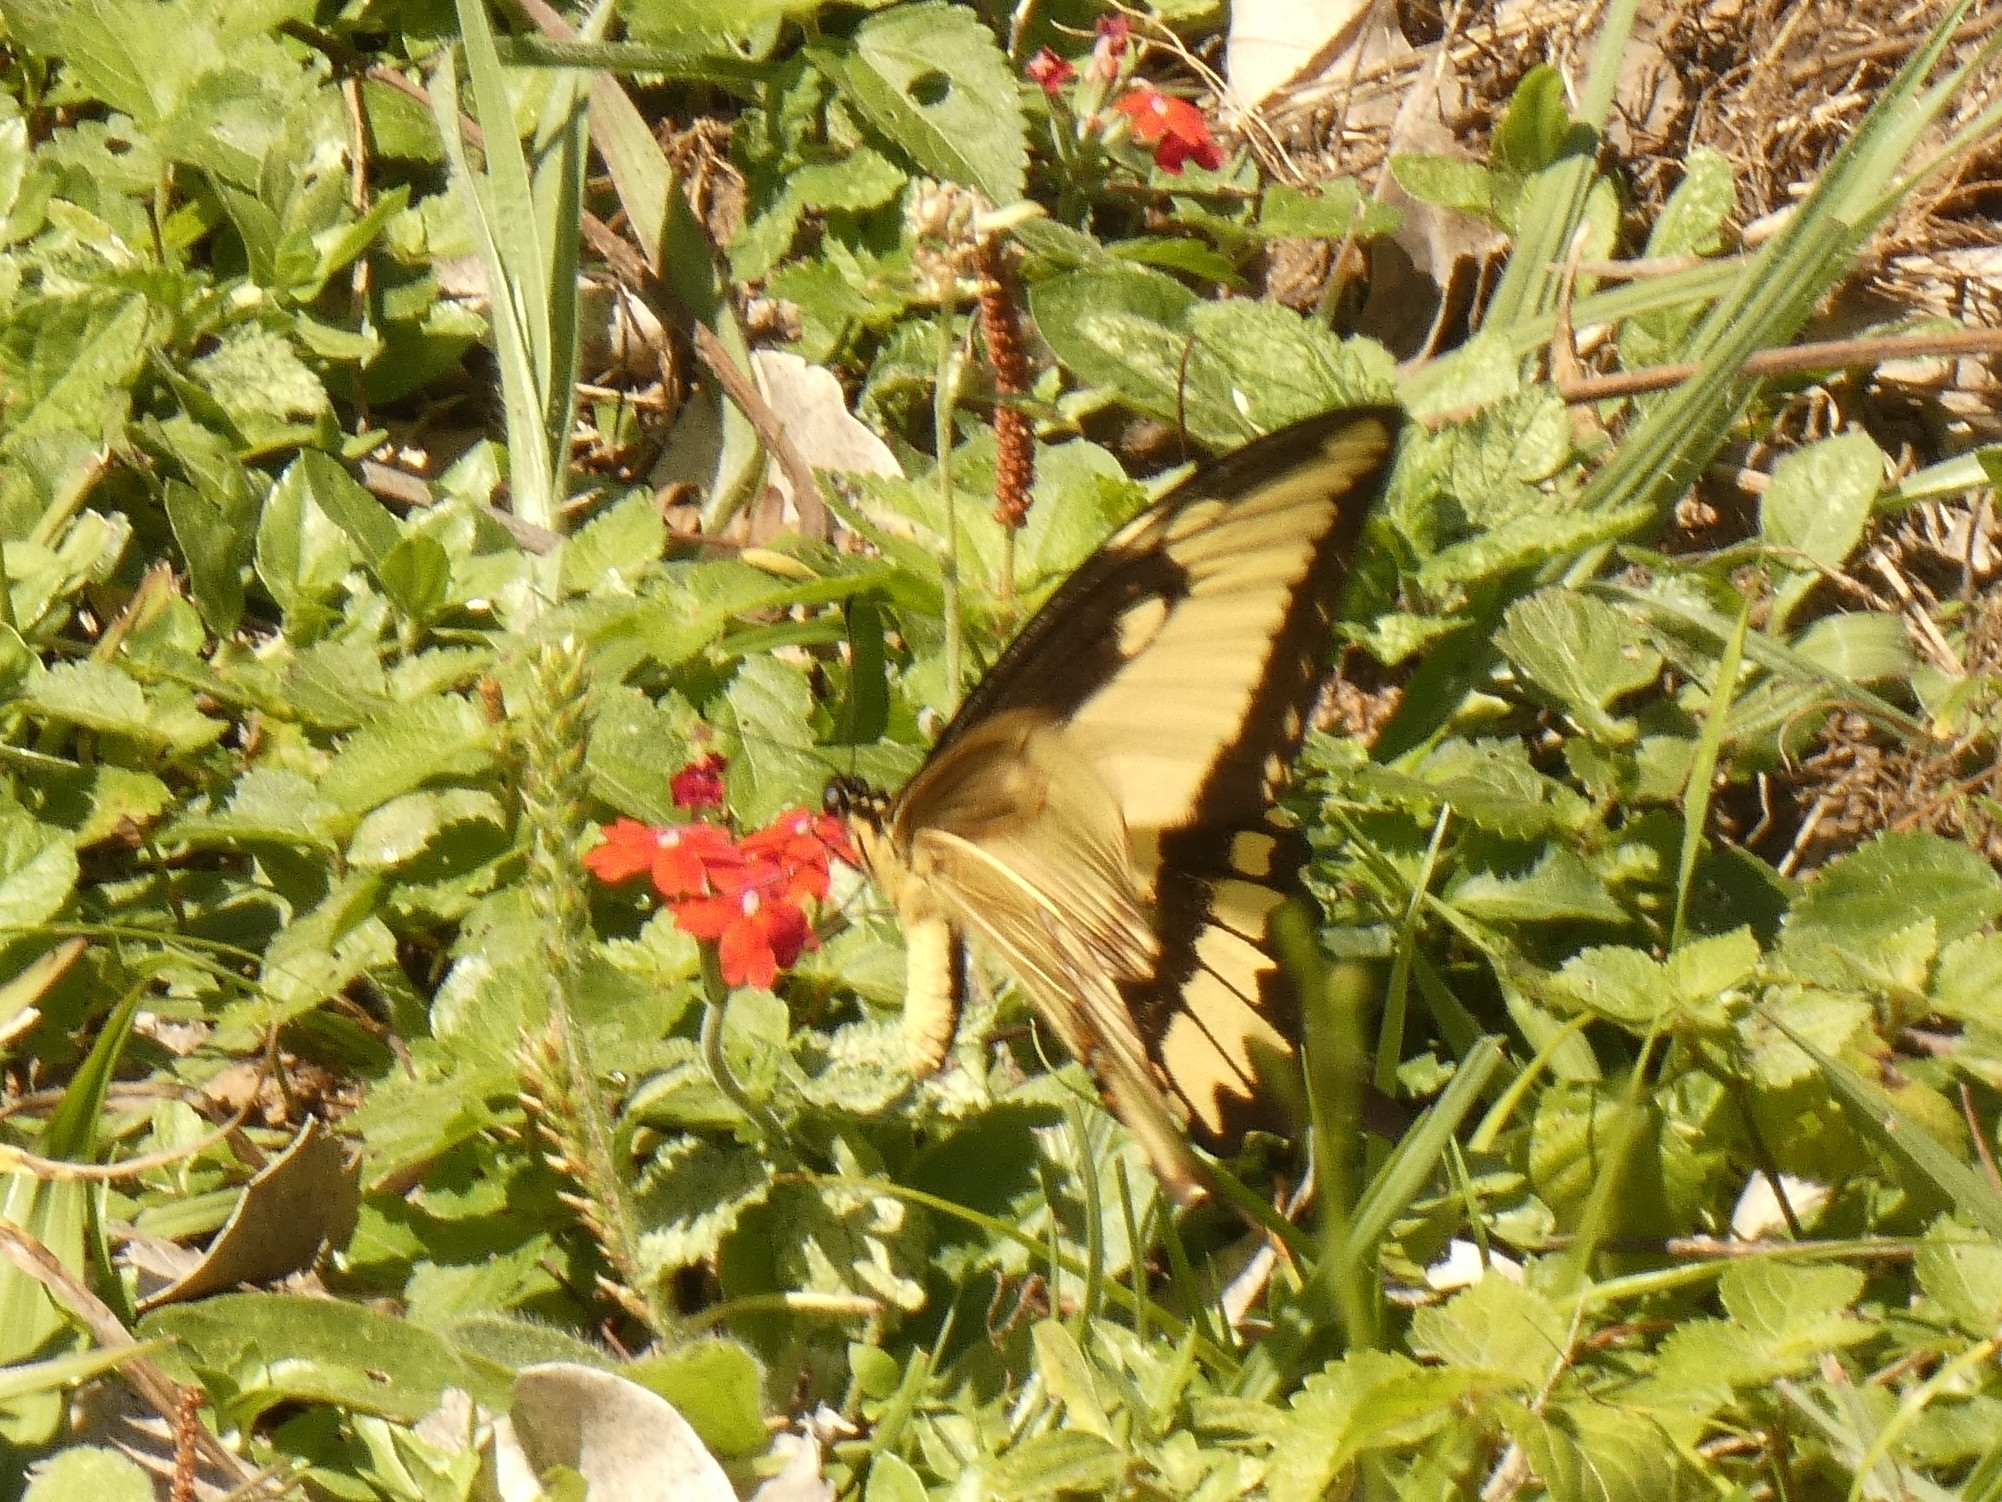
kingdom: Animalia
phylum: Arthropoda
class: Insecta
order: Lepidoptera
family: Papilionidae
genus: Papilio
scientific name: Papilio astyalus
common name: Astyalus swallowtail
